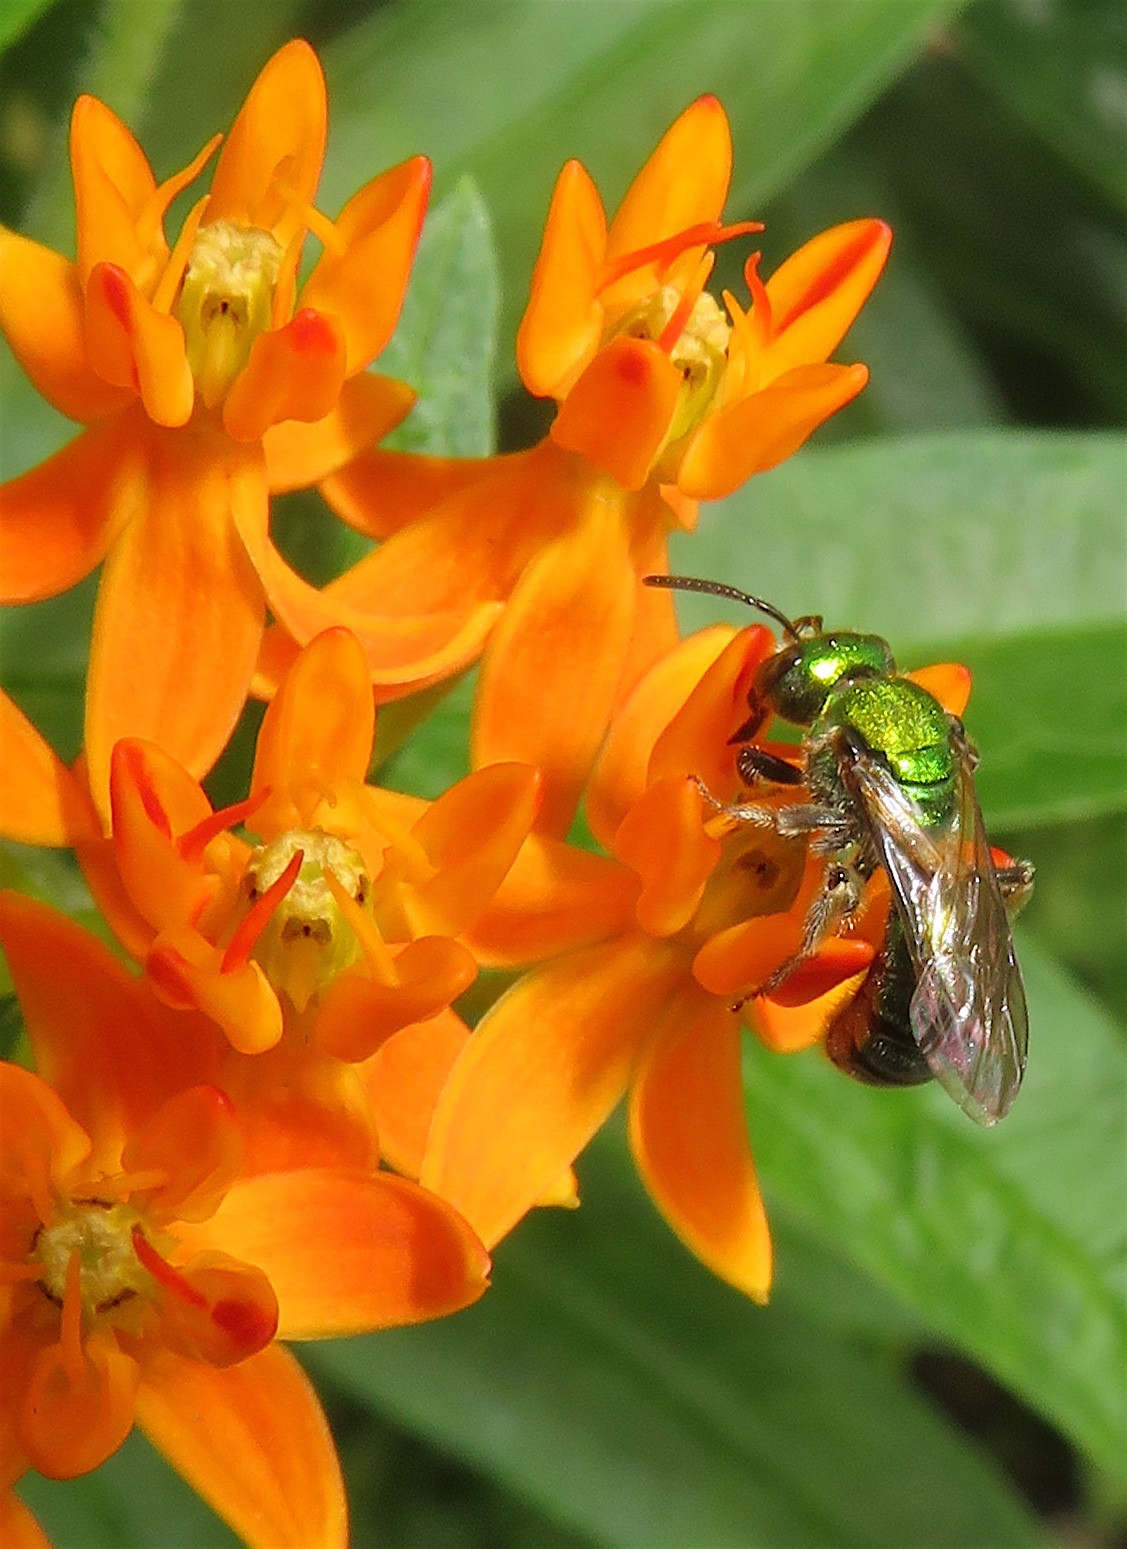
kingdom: Animalia
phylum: Arthropoda
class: Insecta
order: Hymenoptera
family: Halictidae
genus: Augochlora
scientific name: Augochlora pura
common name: Pure green sweat bee
